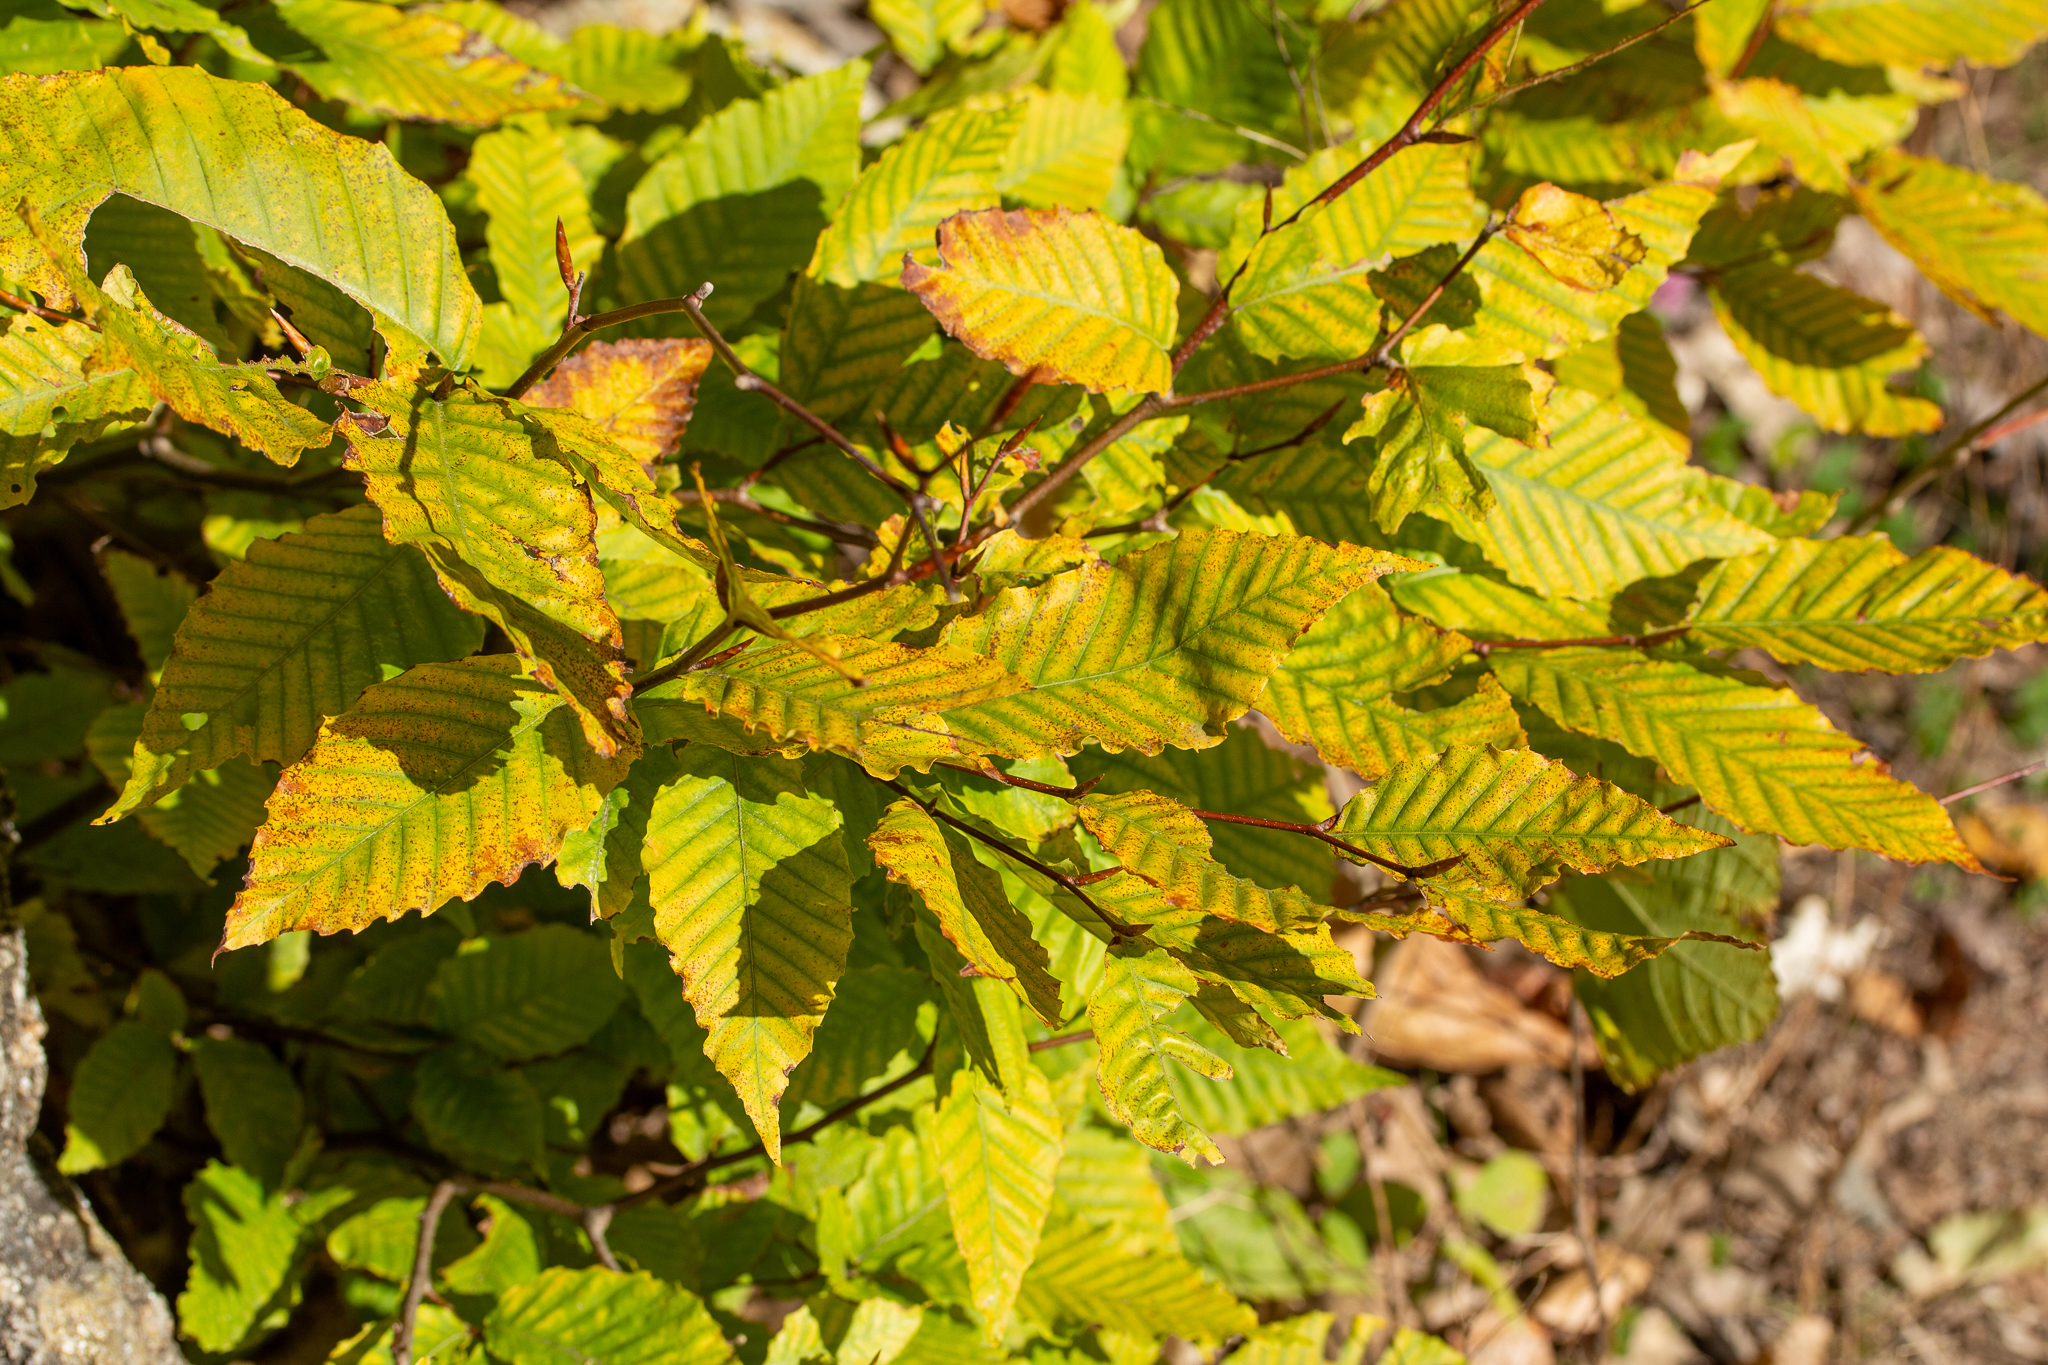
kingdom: Plantae
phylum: Tracheophyta
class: Magnoliopsida
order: Fagales
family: Fagaceae
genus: Fagus
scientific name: Fagus grandifolia
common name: American beech
